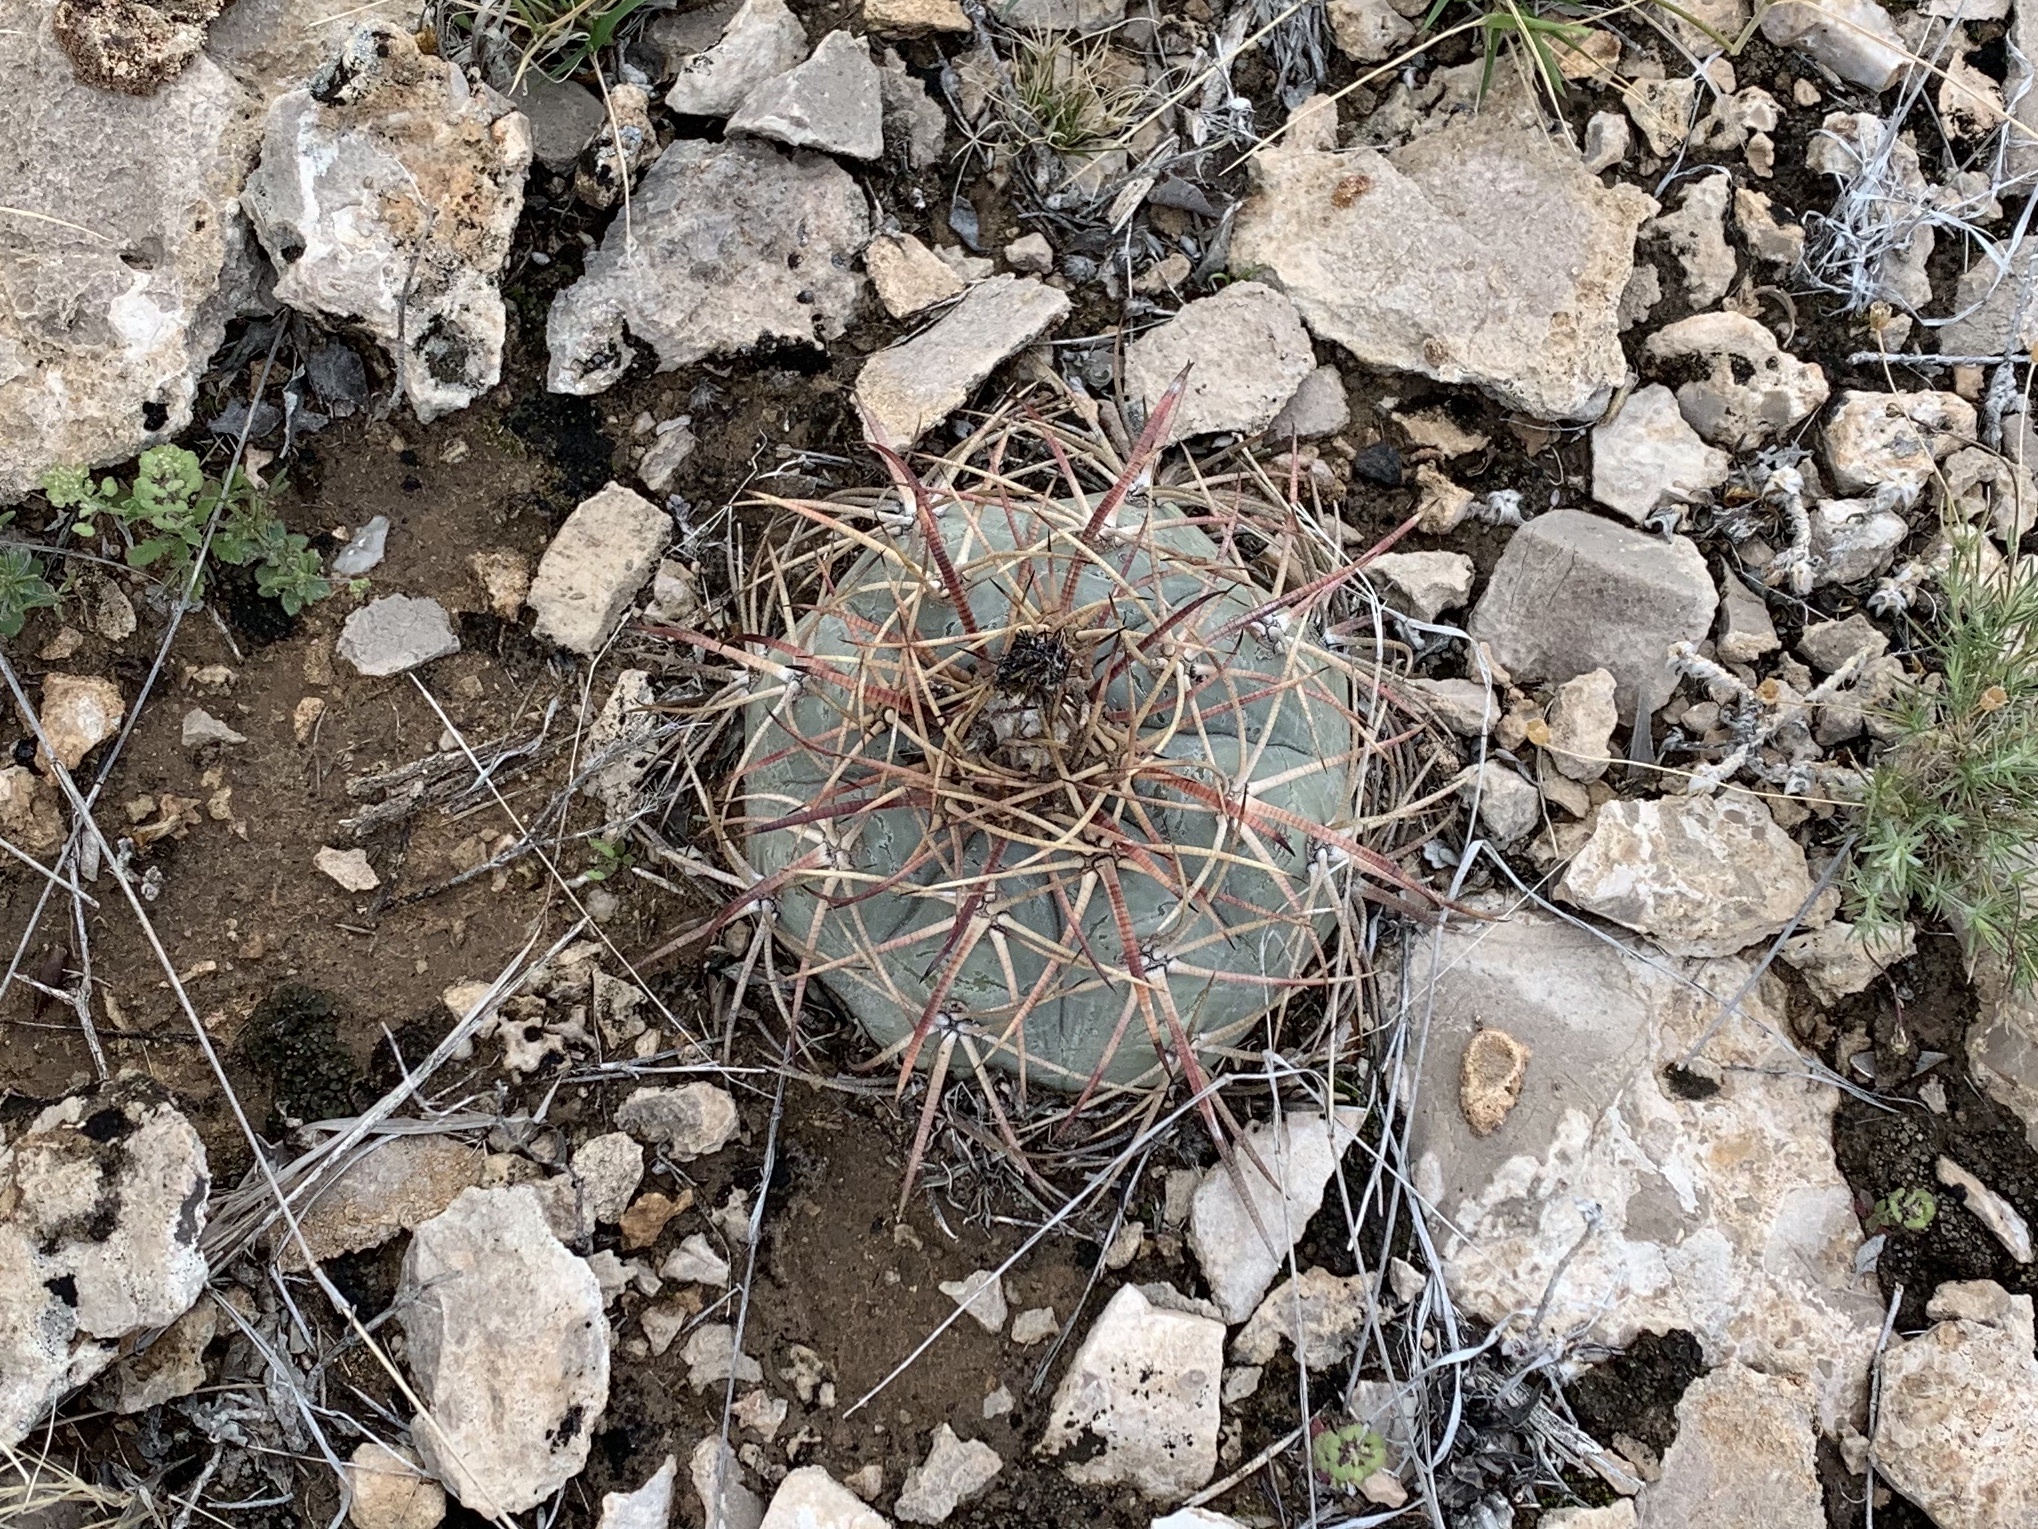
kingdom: Plantae
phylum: Tracheophyta
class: Magnoliopsida
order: Caryophyllales
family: Cactaceae
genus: Echinocactus
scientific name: Echinocactus horizonthalonius
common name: Devilshead
